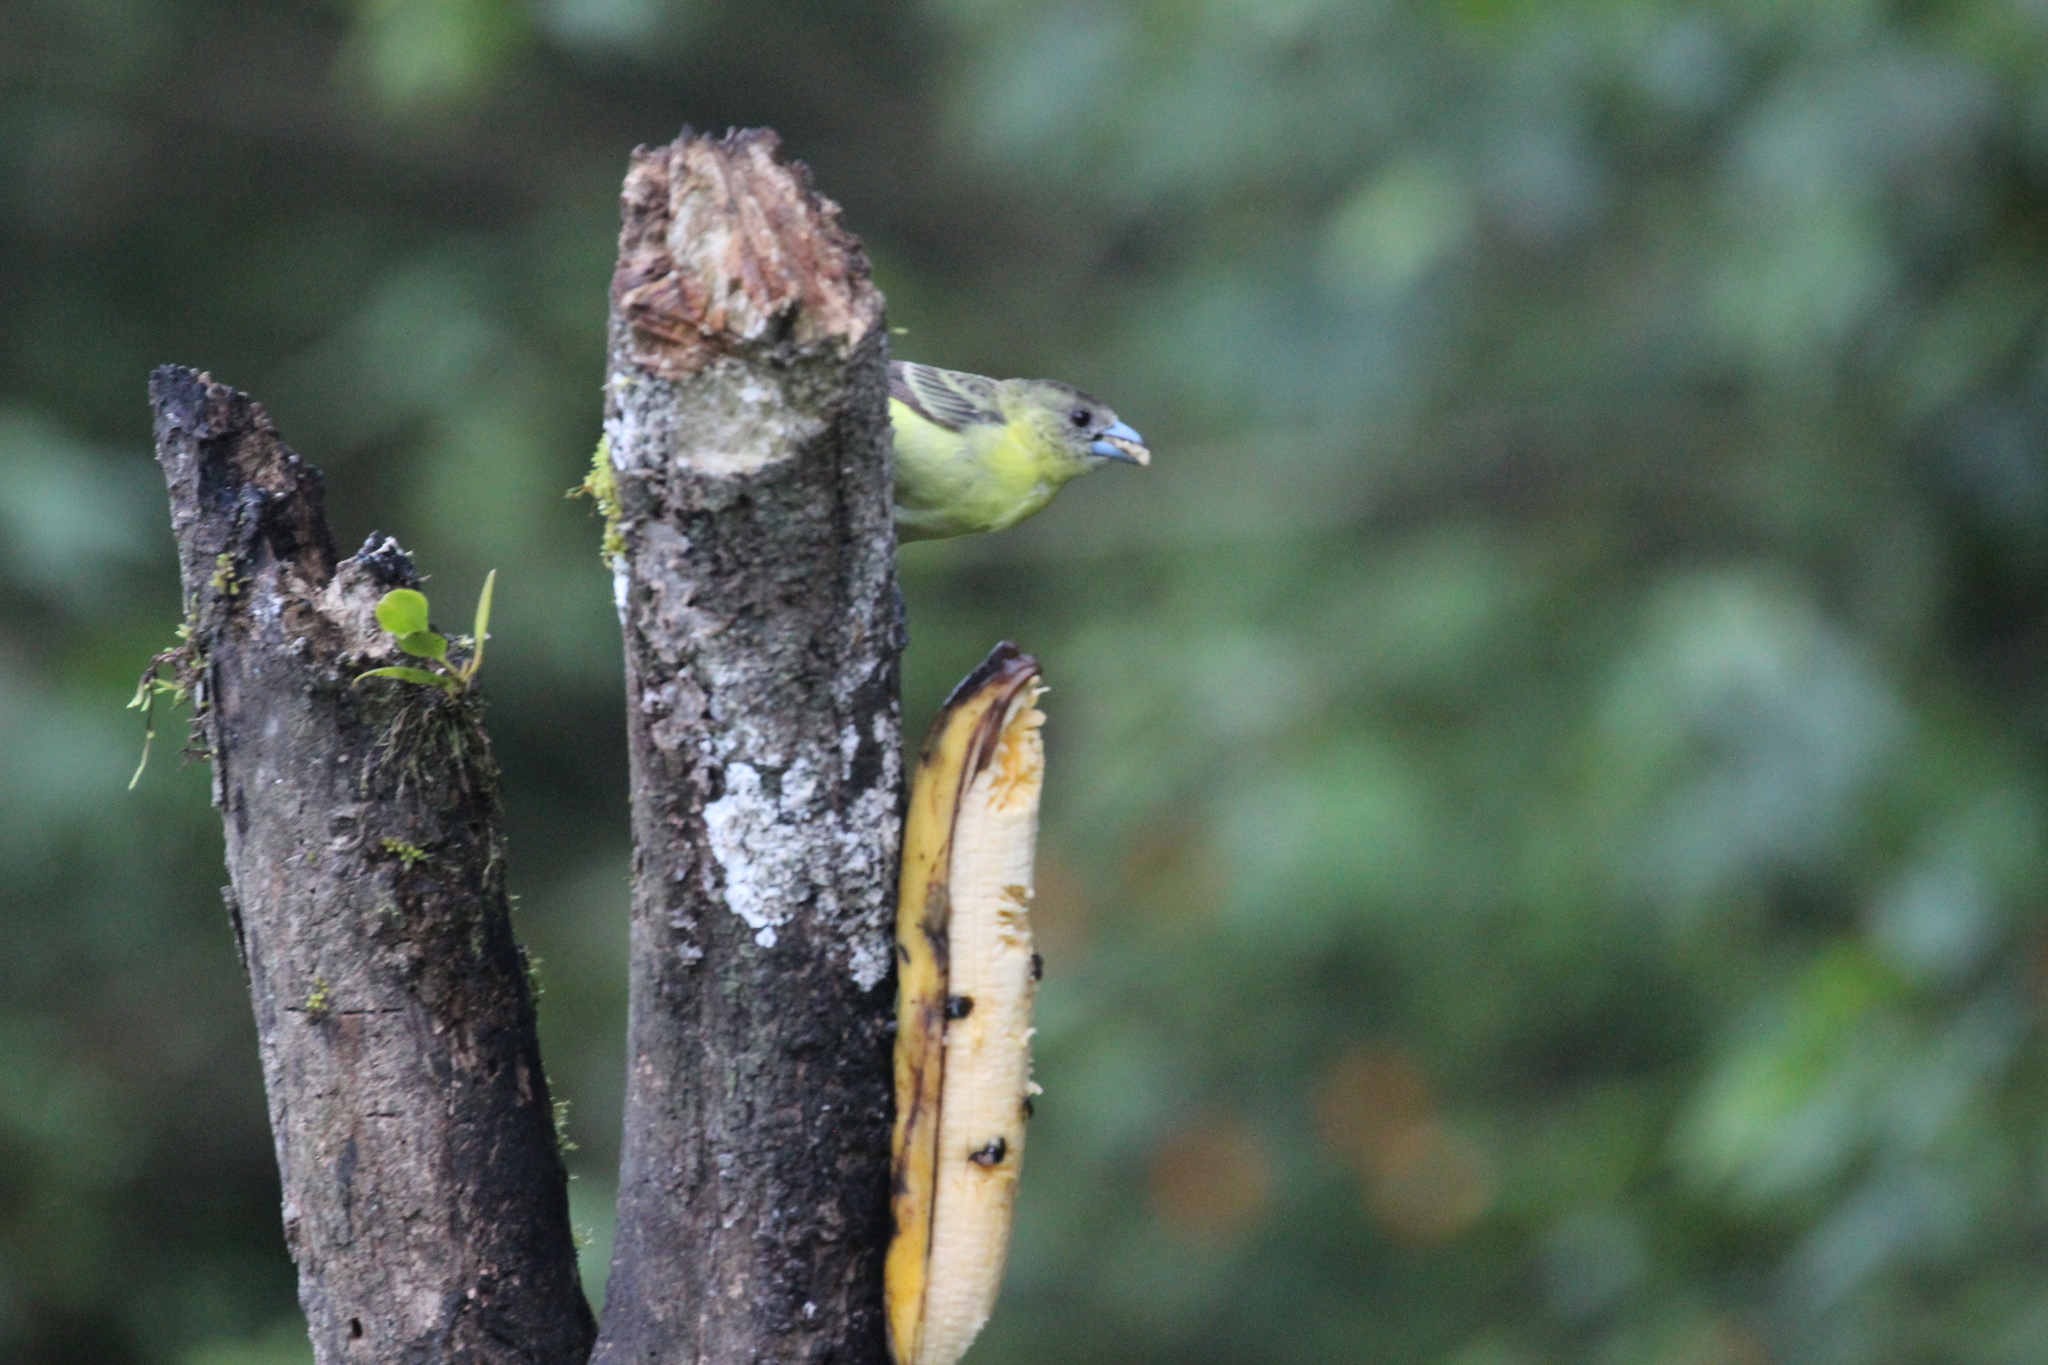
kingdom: Animalia
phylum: Chordata
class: Aves
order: Passeriformes
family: Thraupidae
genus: Ramphocelus
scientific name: Ramphocelus flammigerus
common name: Flame-rumped tanager
